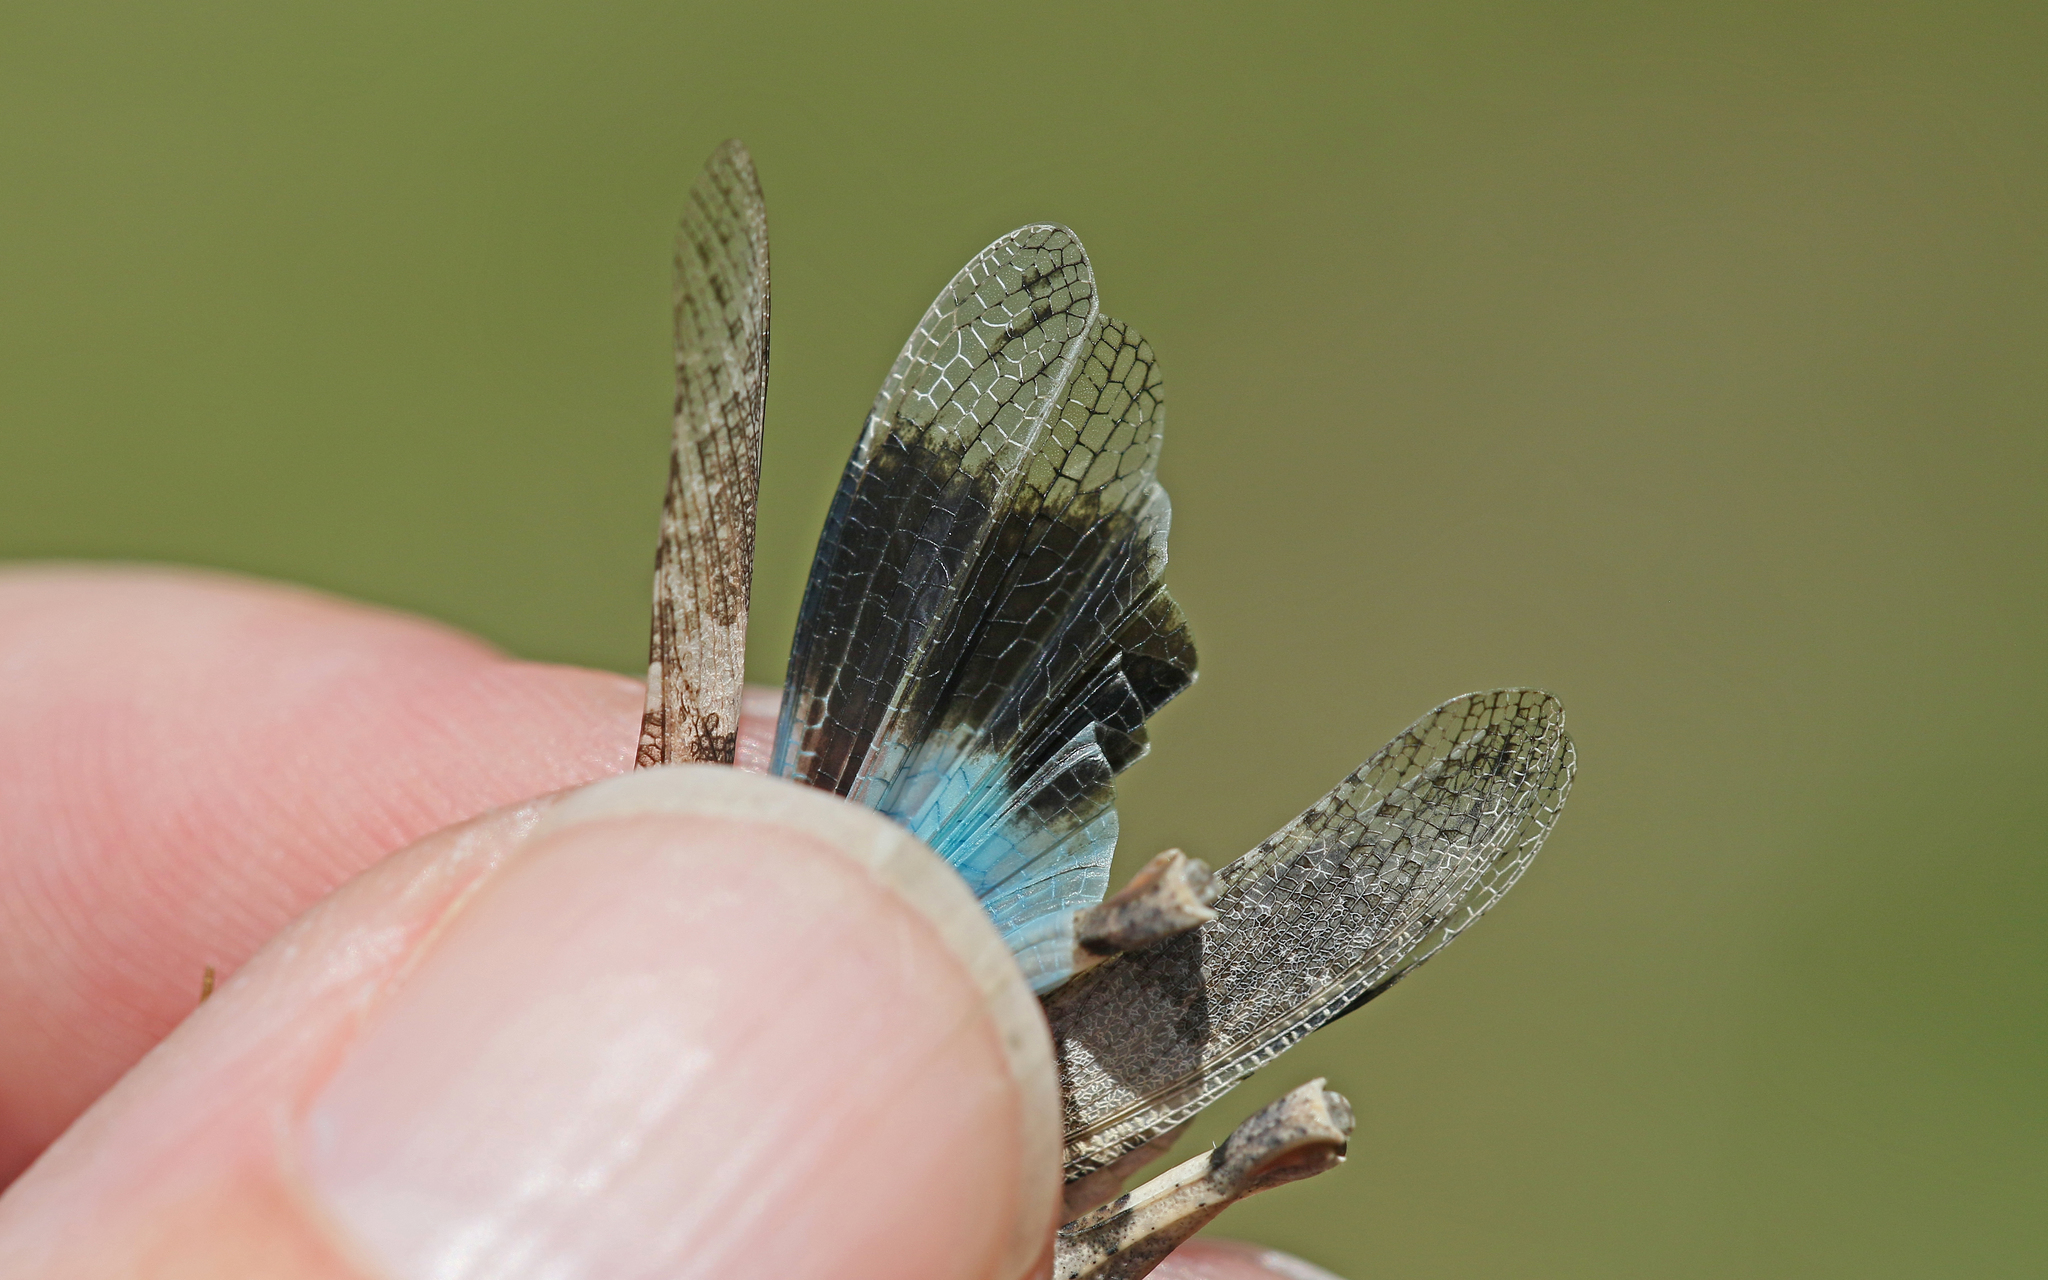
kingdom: Animalia
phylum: Arthropoda
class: Insecta
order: Orthoptera
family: Acrididae
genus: Oedipoda
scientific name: Oedipoda caerulescens
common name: Blue-winged grasshopper
